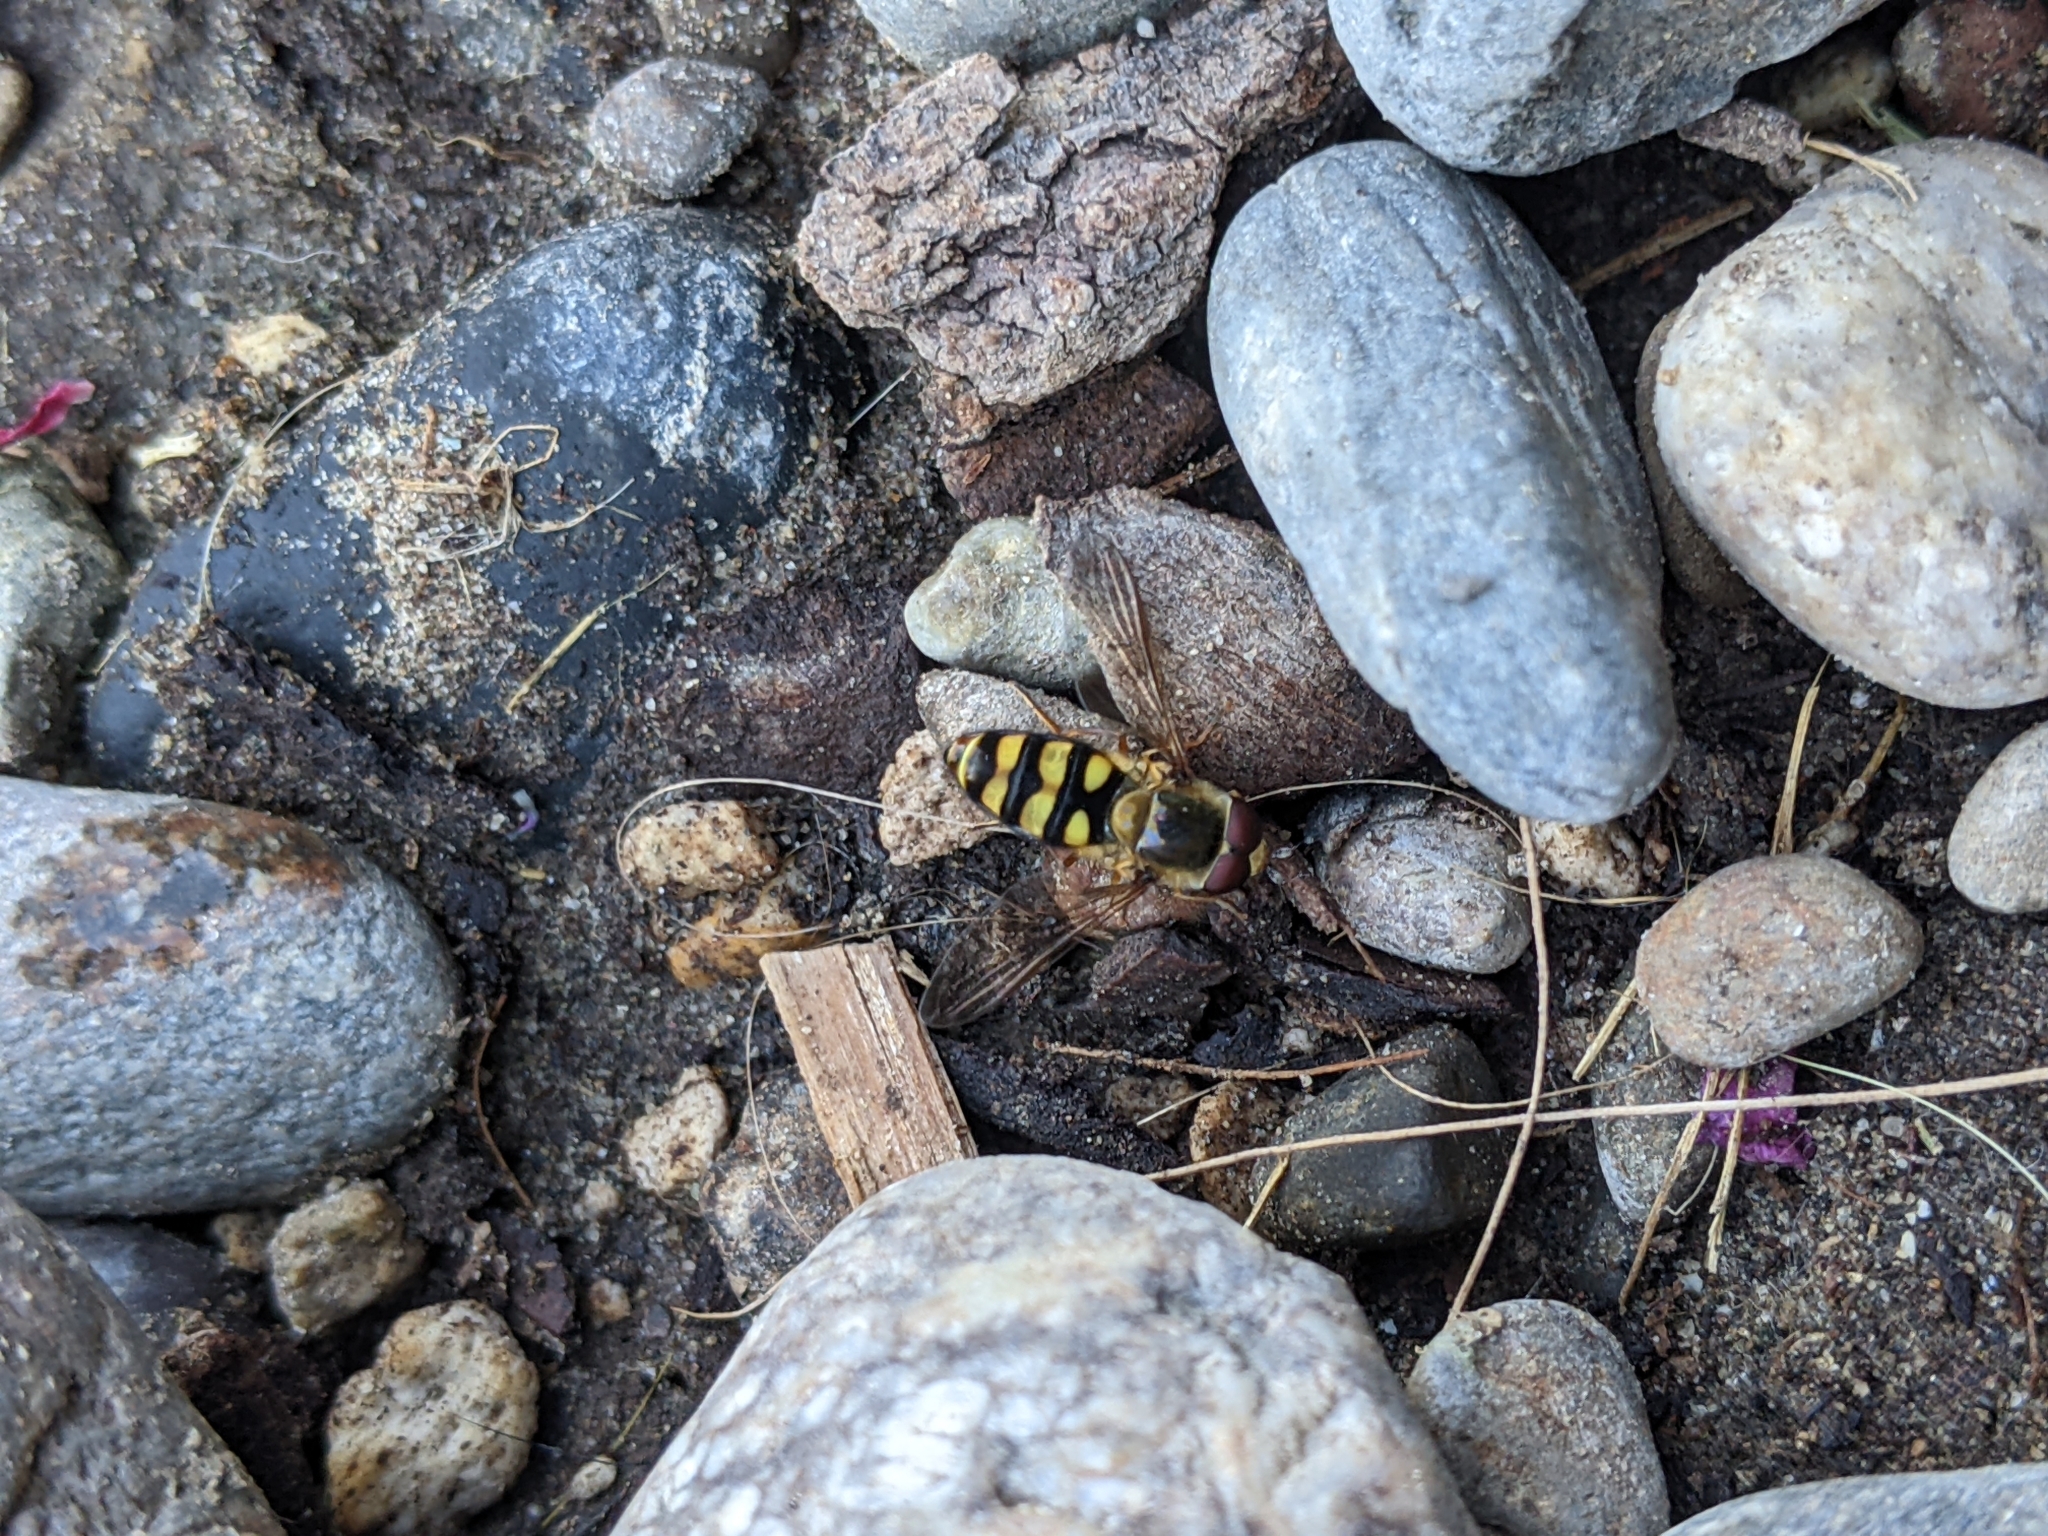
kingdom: Animalia
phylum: Arthropoda
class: Insecta
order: Diptera
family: Syrphidae
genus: Eupeodes
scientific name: Eupeodes fumipennis
